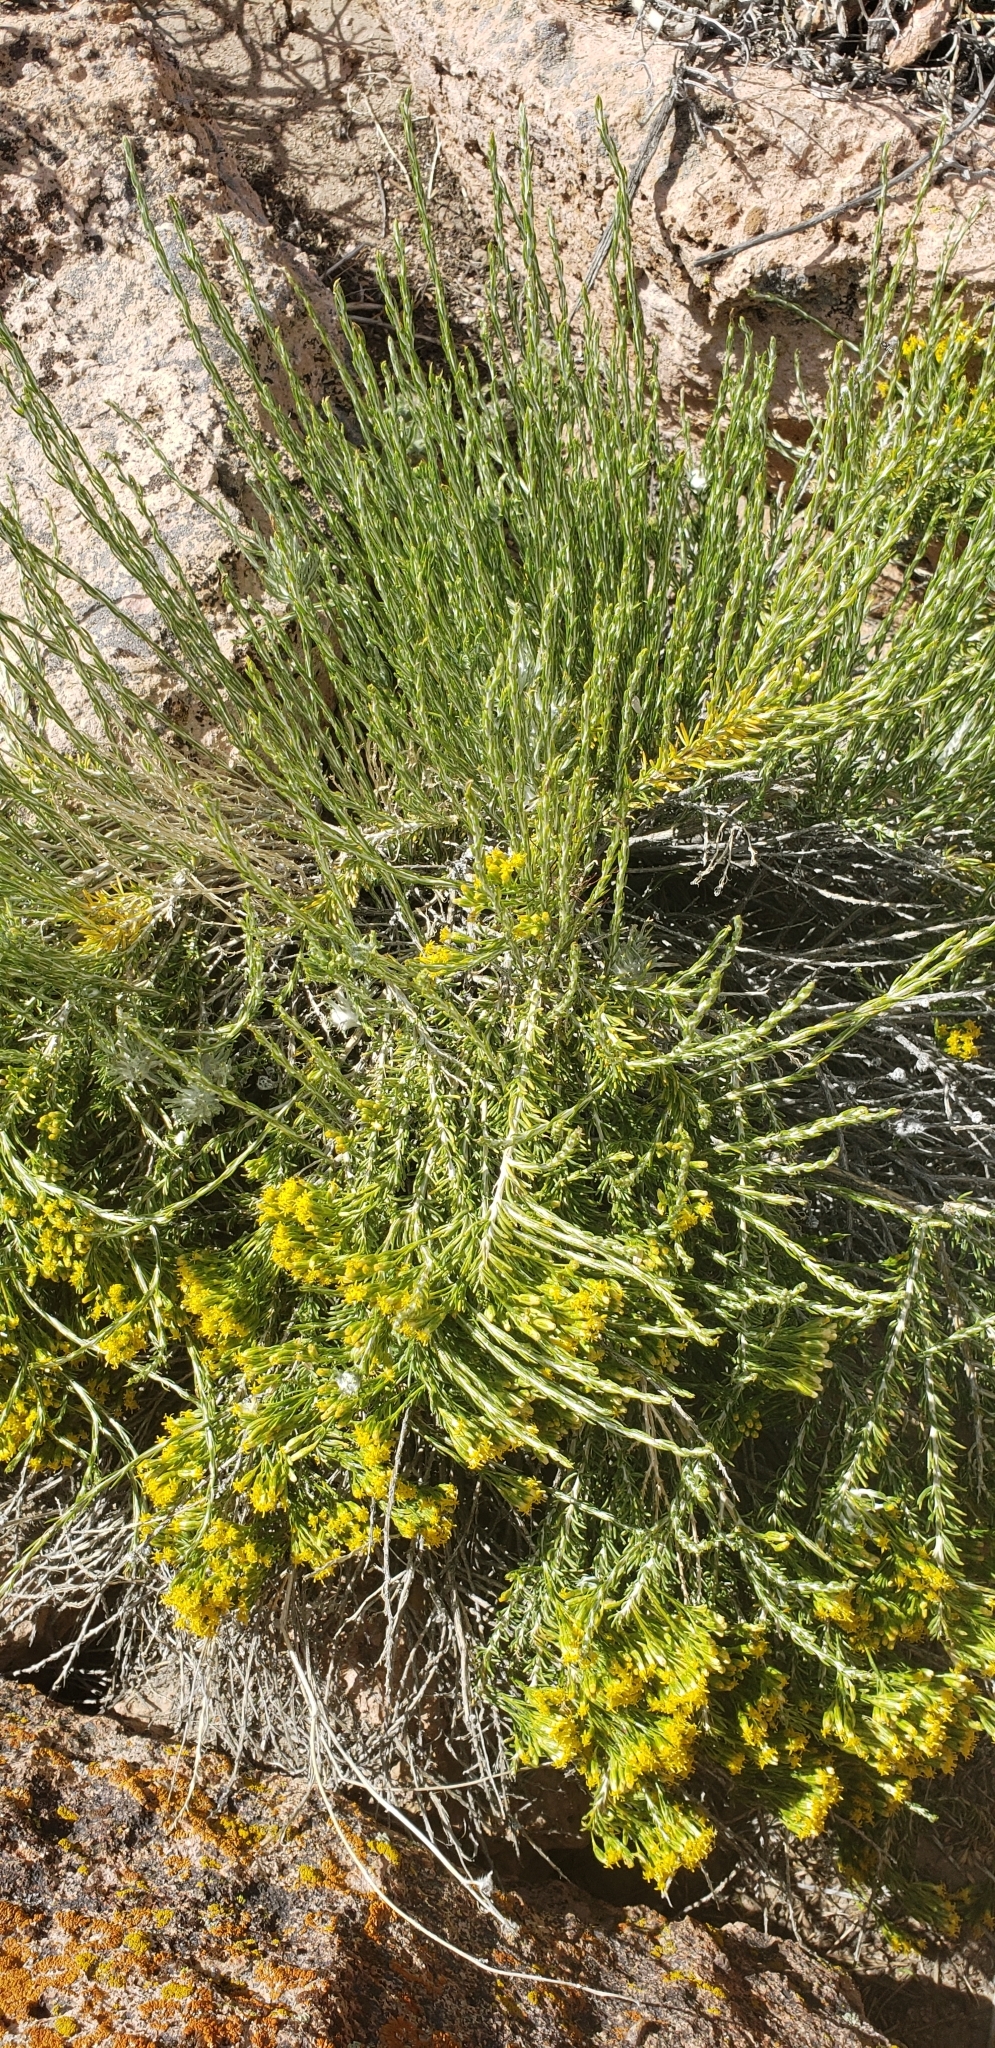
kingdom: Plantae
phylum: Tracheophyta
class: Magnoliopsida
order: Asterales
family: Asteraceae
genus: Tetradymia
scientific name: Tetradymia glabrata
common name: Smooth tetradymia
